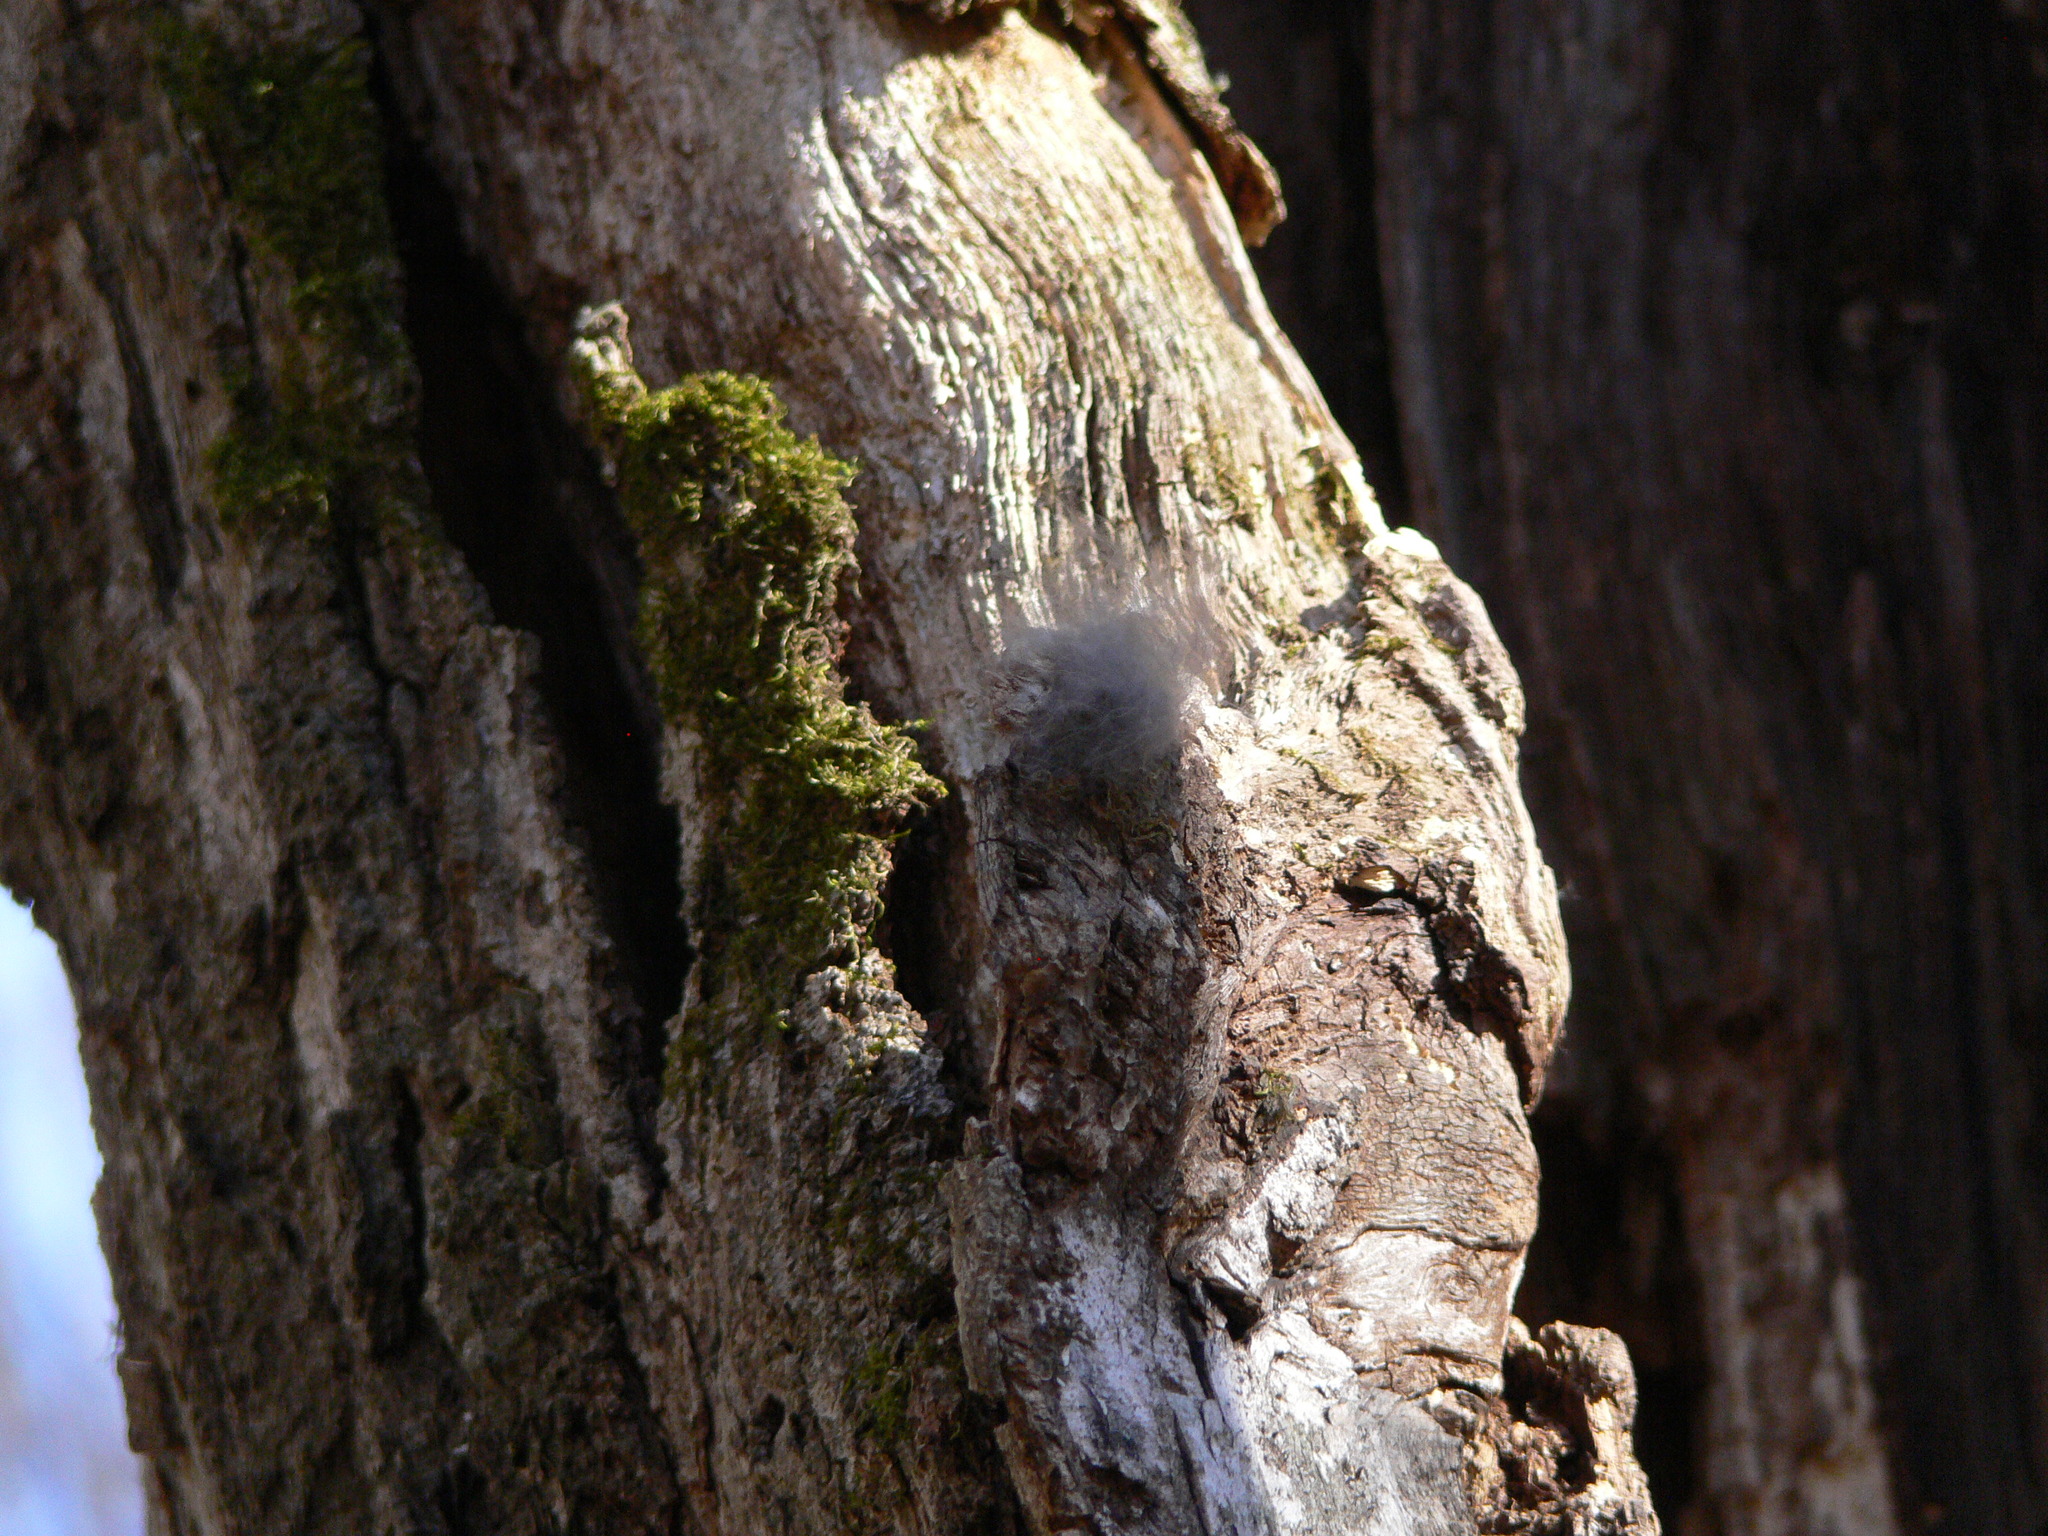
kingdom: Animalia
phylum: Chordata
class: Aves
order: Strigiformes
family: Strigidae
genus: Strix
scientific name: Strix uralensis
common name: Ural owl
